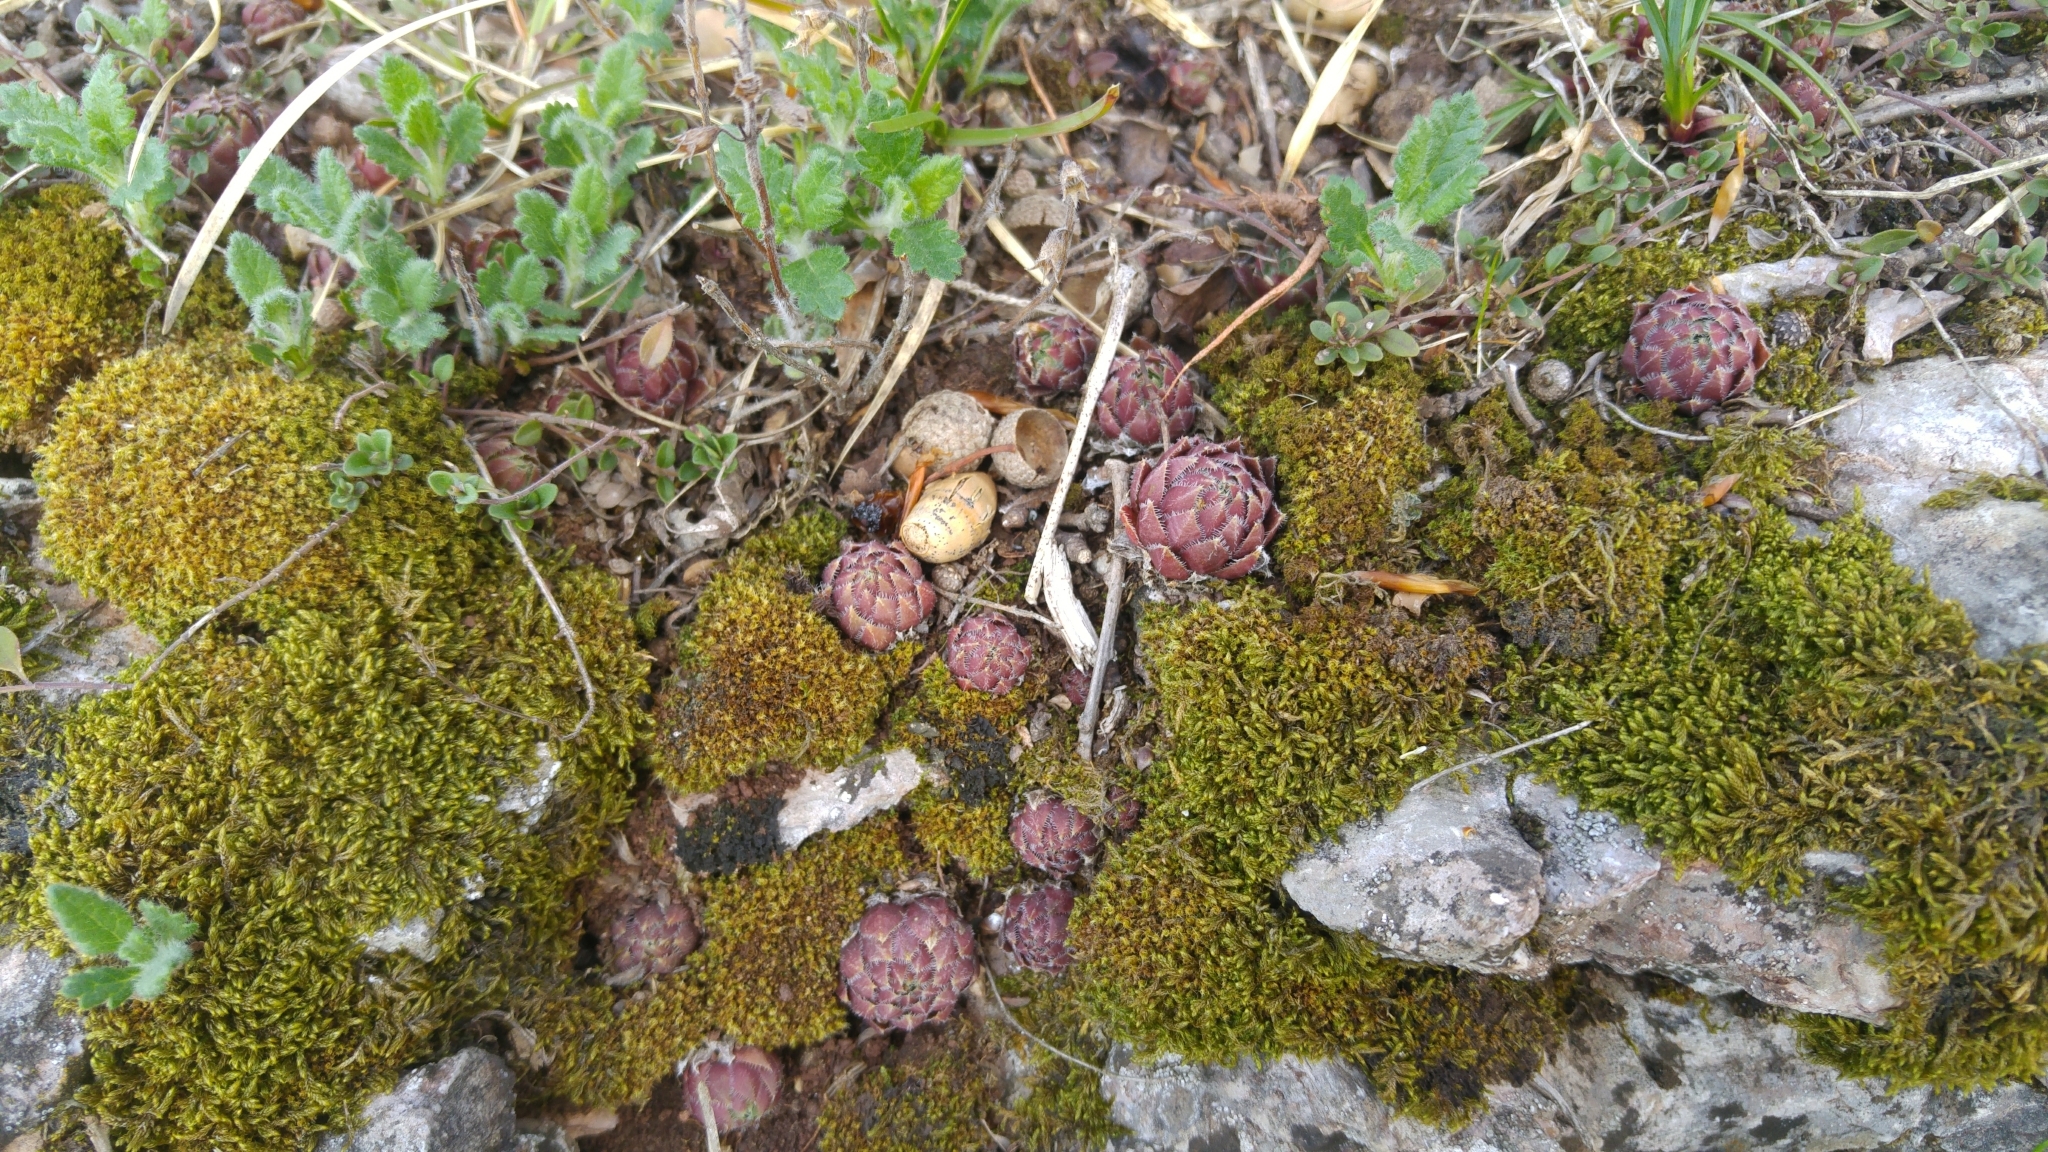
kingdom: Plantae
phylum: Tracheophyta
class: Magnoliopsida
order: Saxifragales
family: Crassulaceae
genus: Sempervivum
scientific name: Sempervivum globiferum
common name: Rolling hen-and-chicks
